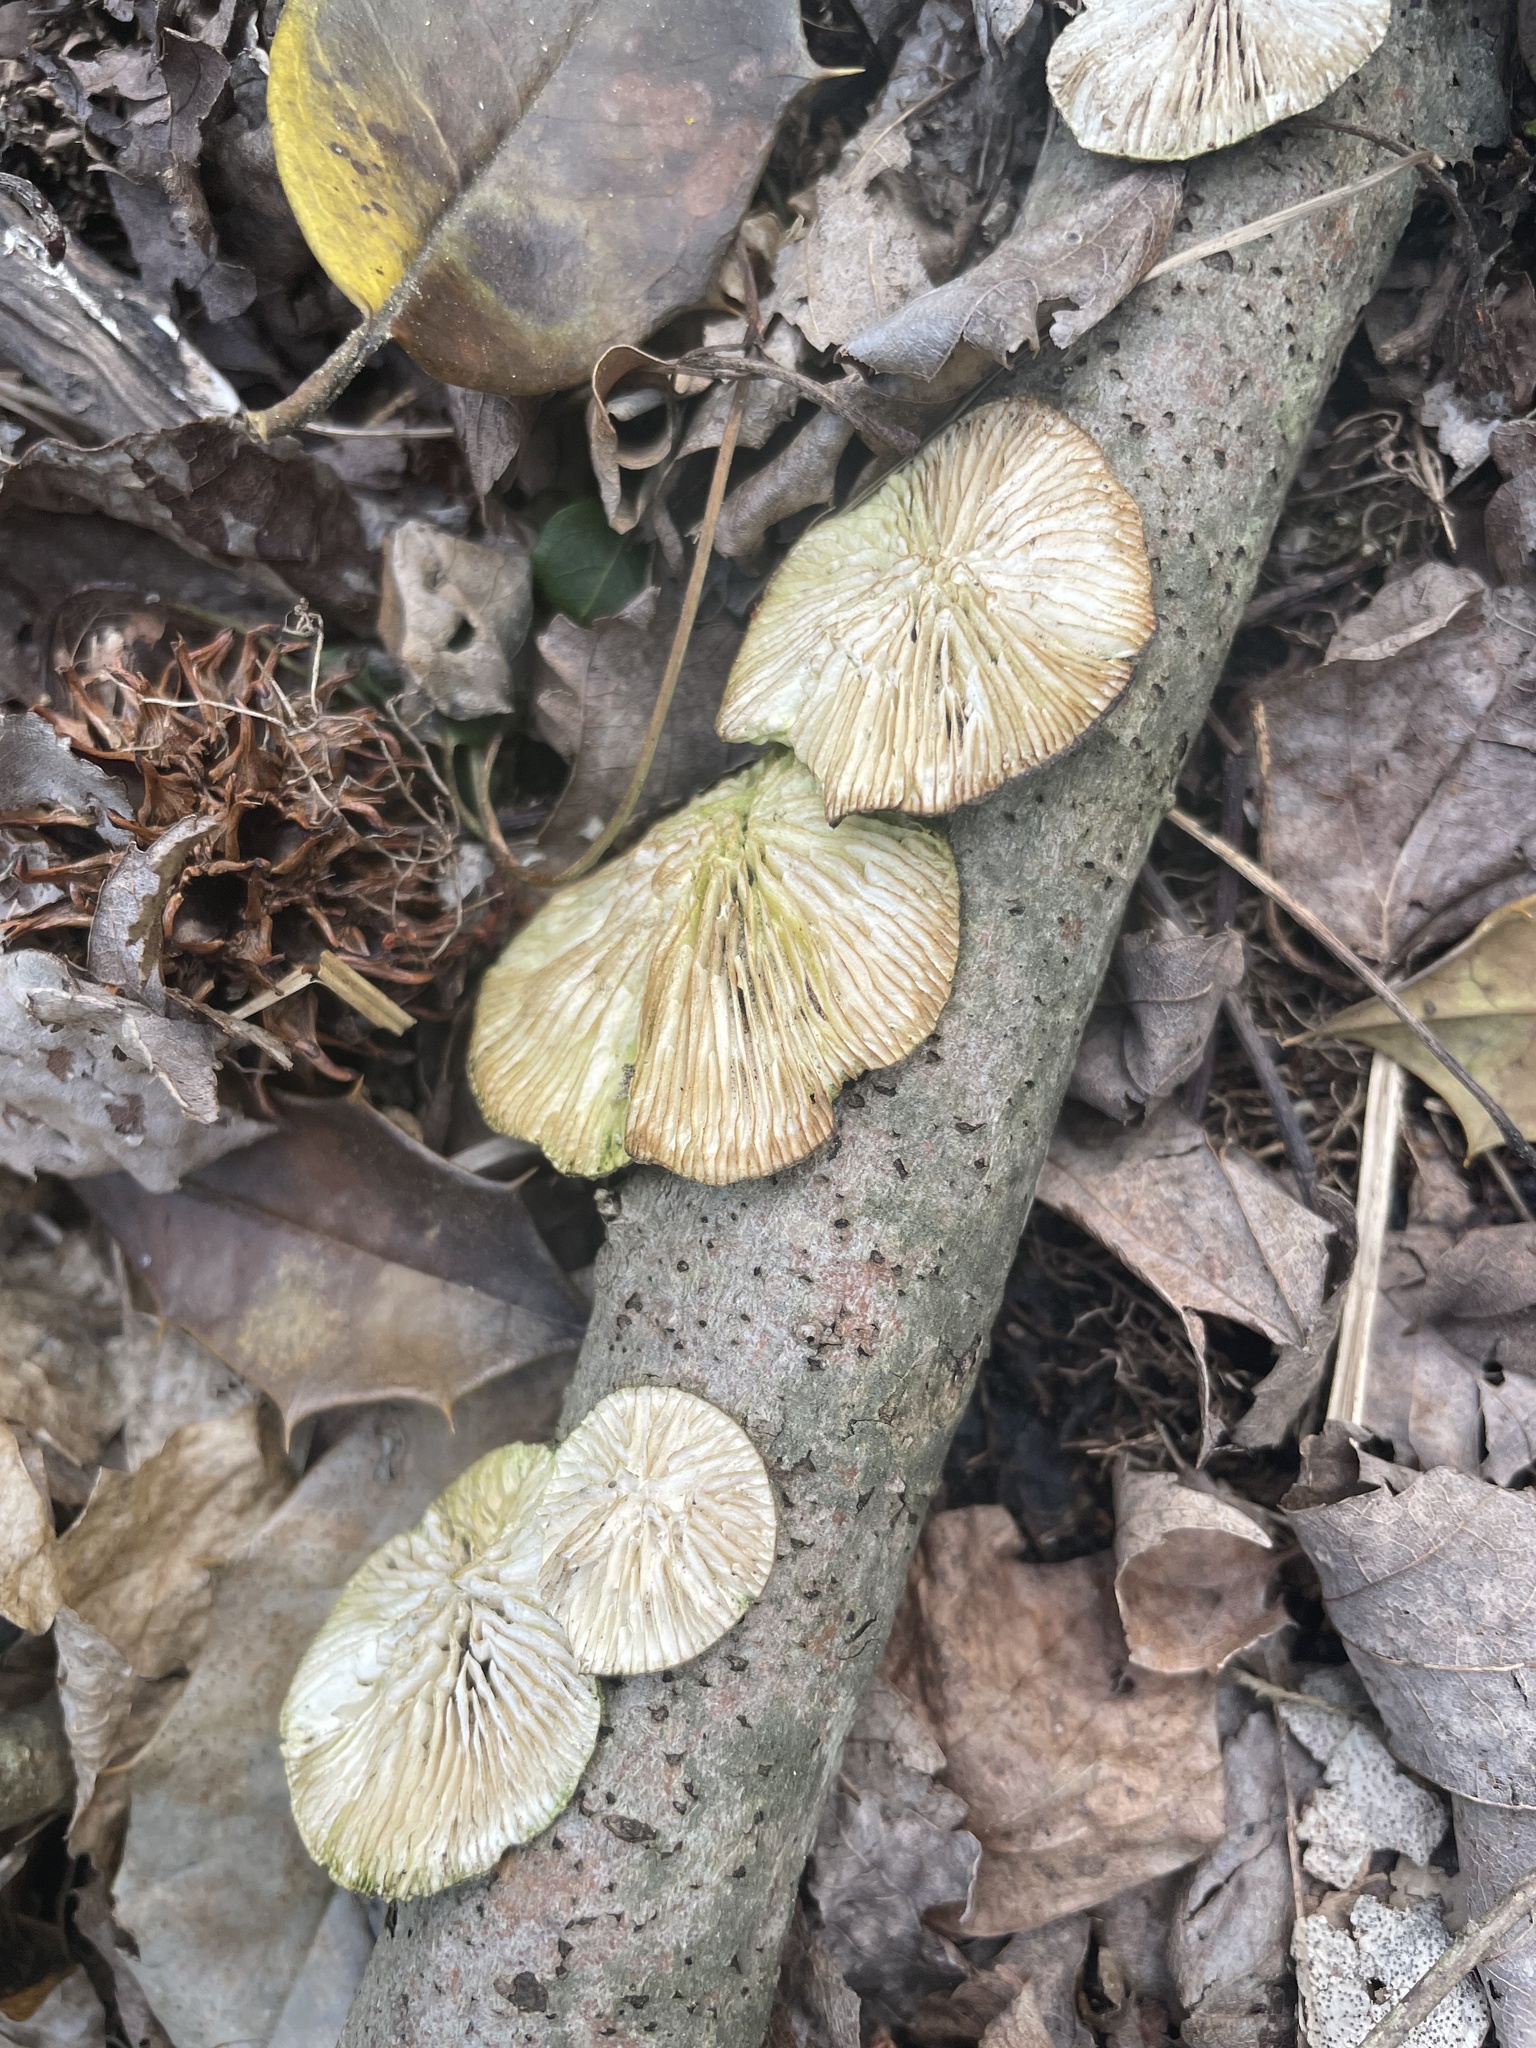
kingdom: Fungi
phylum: Basidiomycota
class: Agaricomycetes
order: Polyporales
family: Polyporaceae
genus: Lenzites
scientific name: Lenzites betulinus
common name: Birch mazegill
